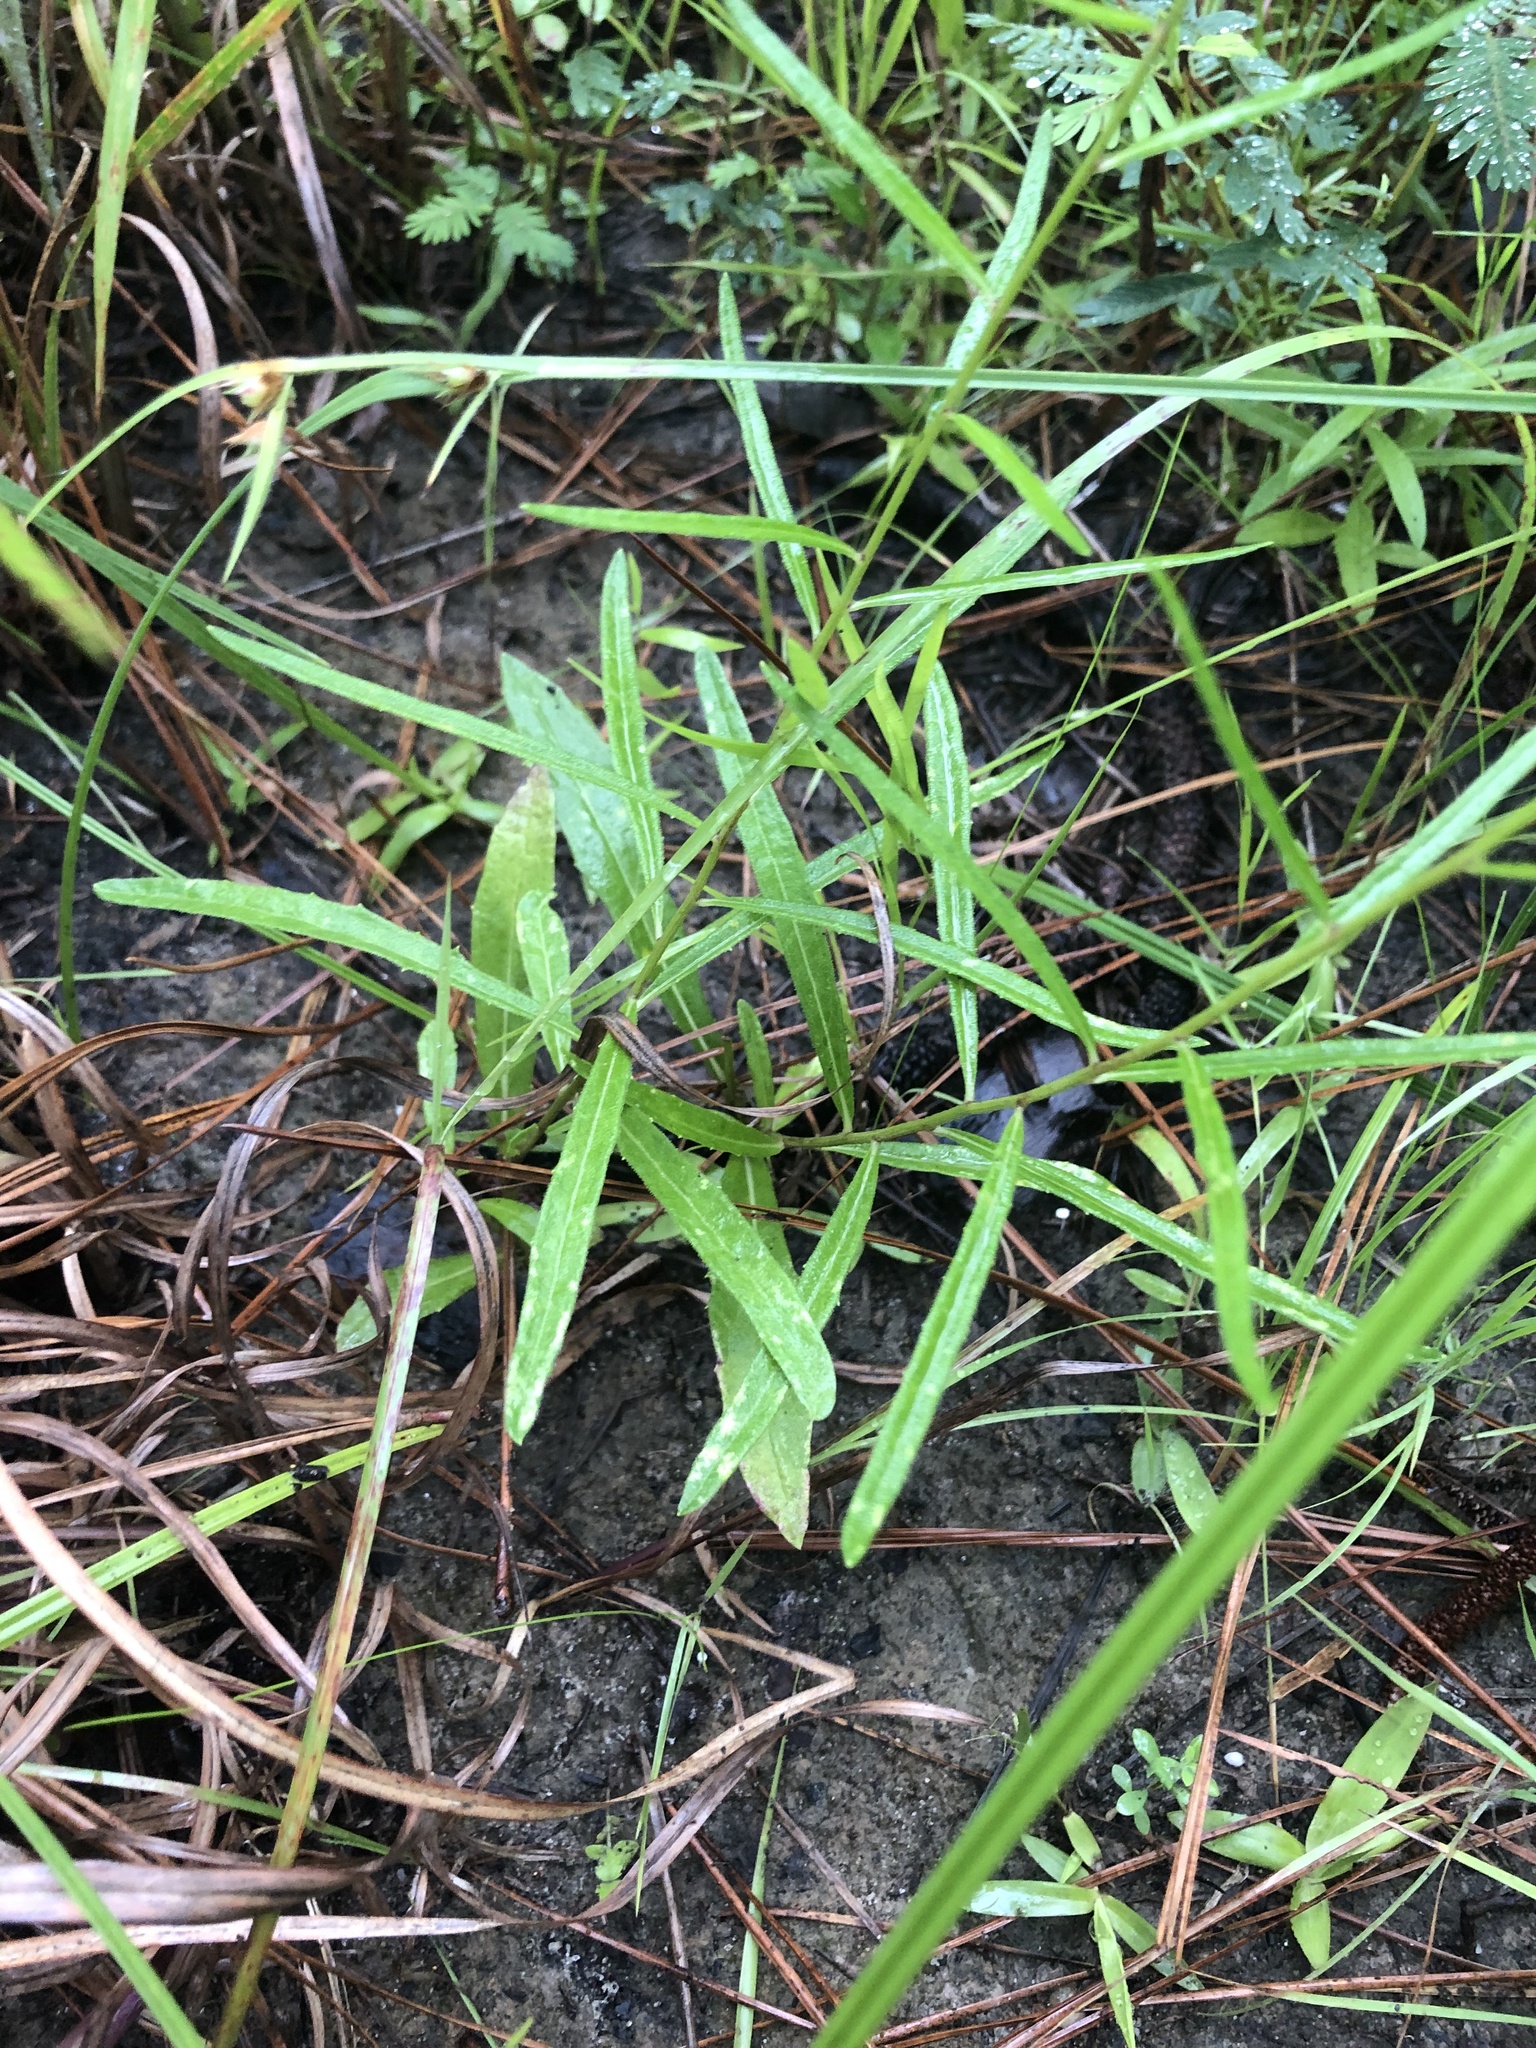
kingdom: Plantae
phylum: Tracheophyta
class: Magnoliopsida
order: Asterales
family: Asteraceae
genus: Vernonia
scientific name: Vernonia texana
